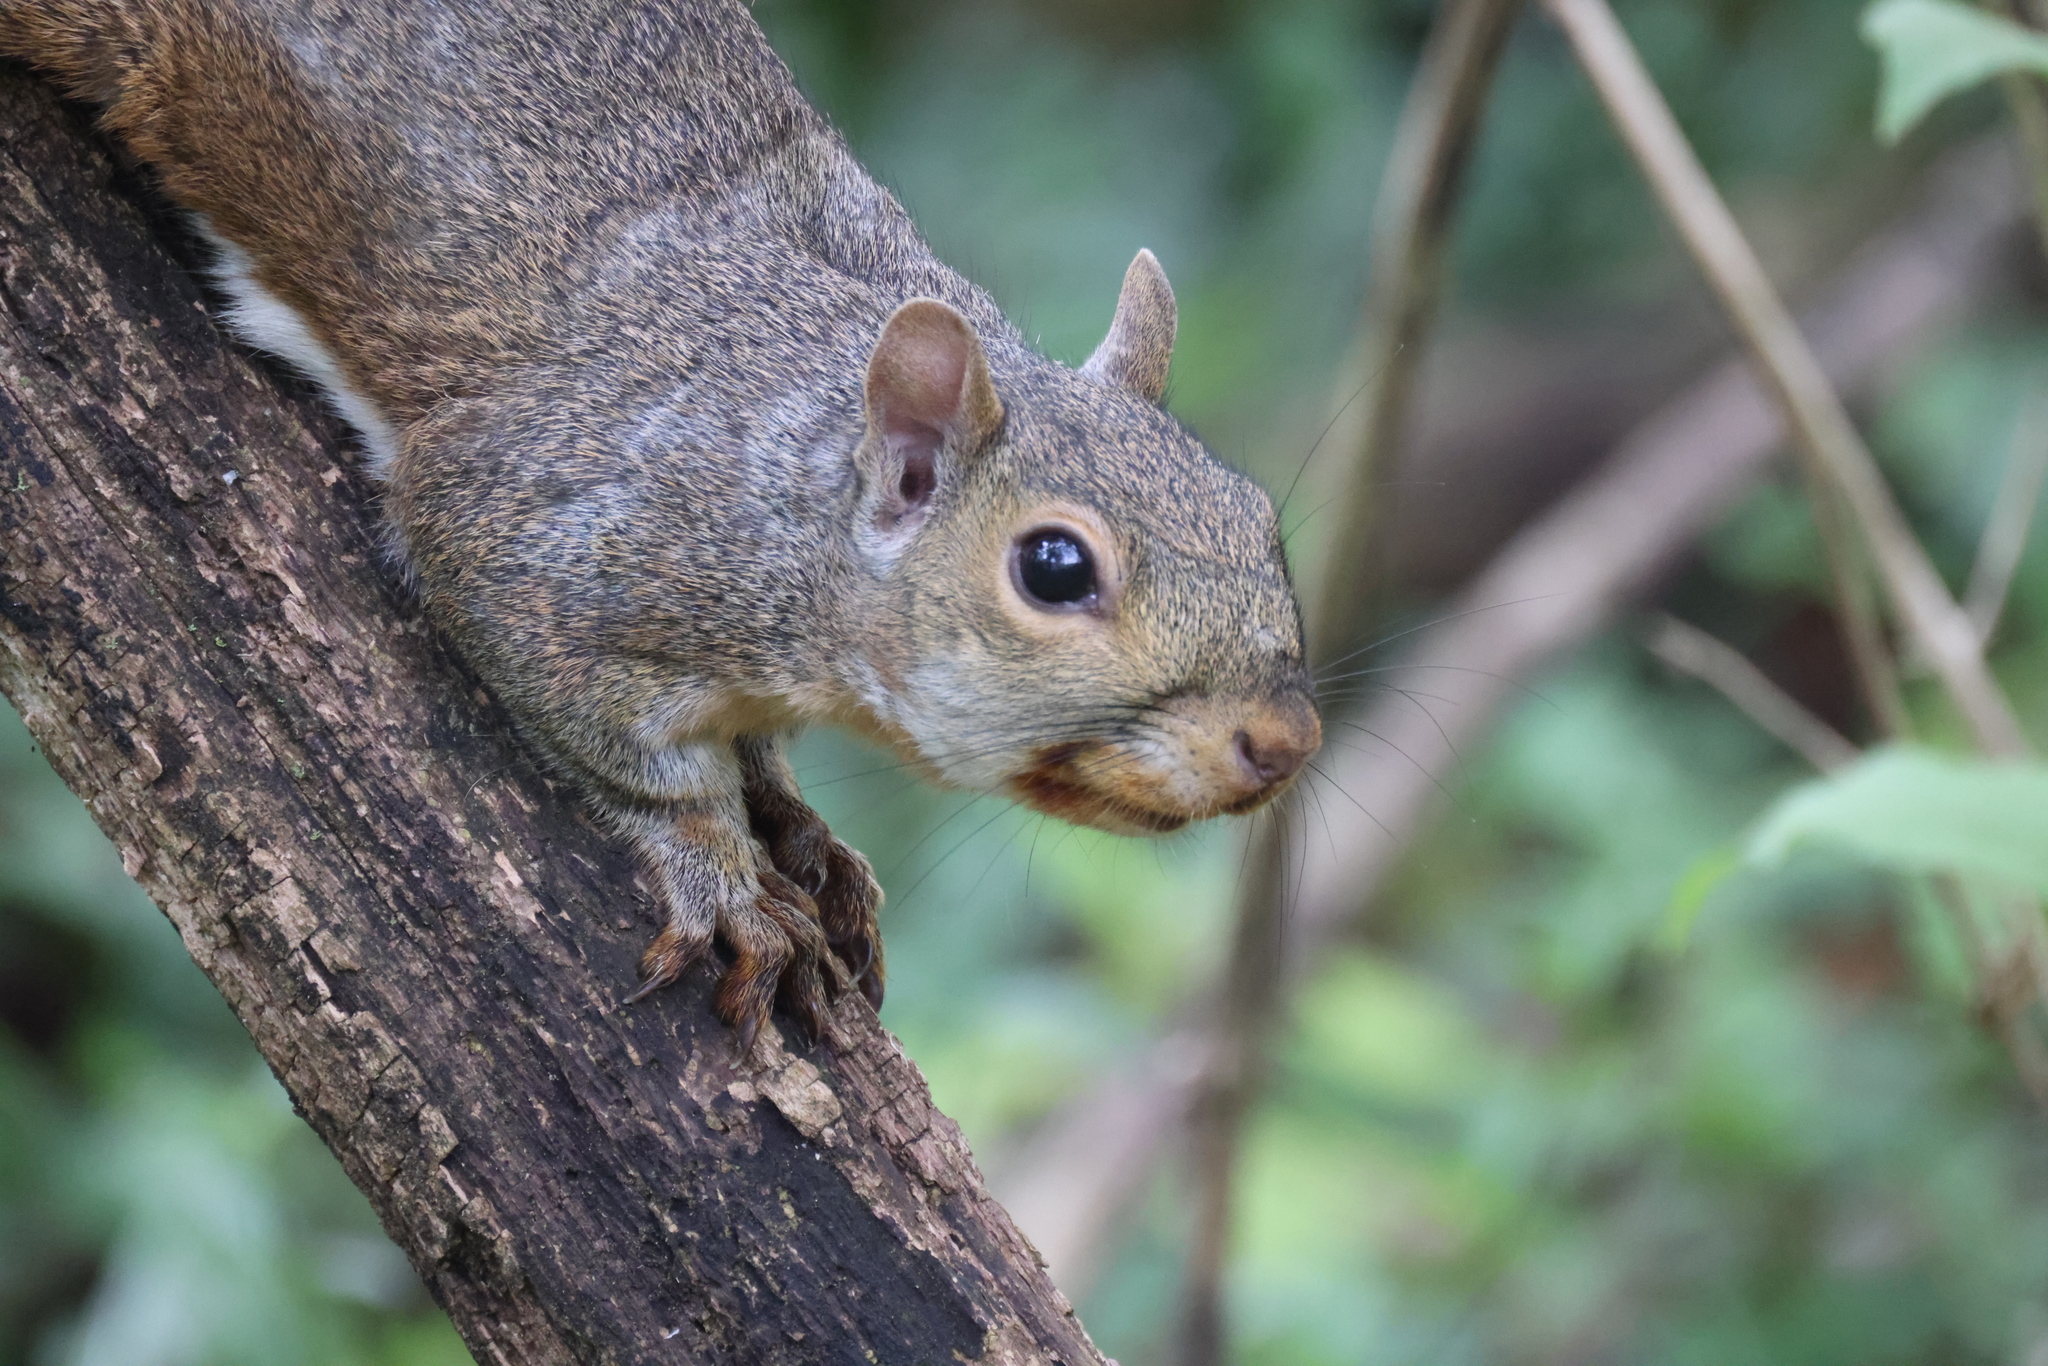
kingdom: Animalia
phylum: Chordata
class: Mammalia
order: Rodentia
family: Sciuridae
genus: Sciurus
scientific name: Sciurus carolinensis
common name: Eastern gray squirrel
